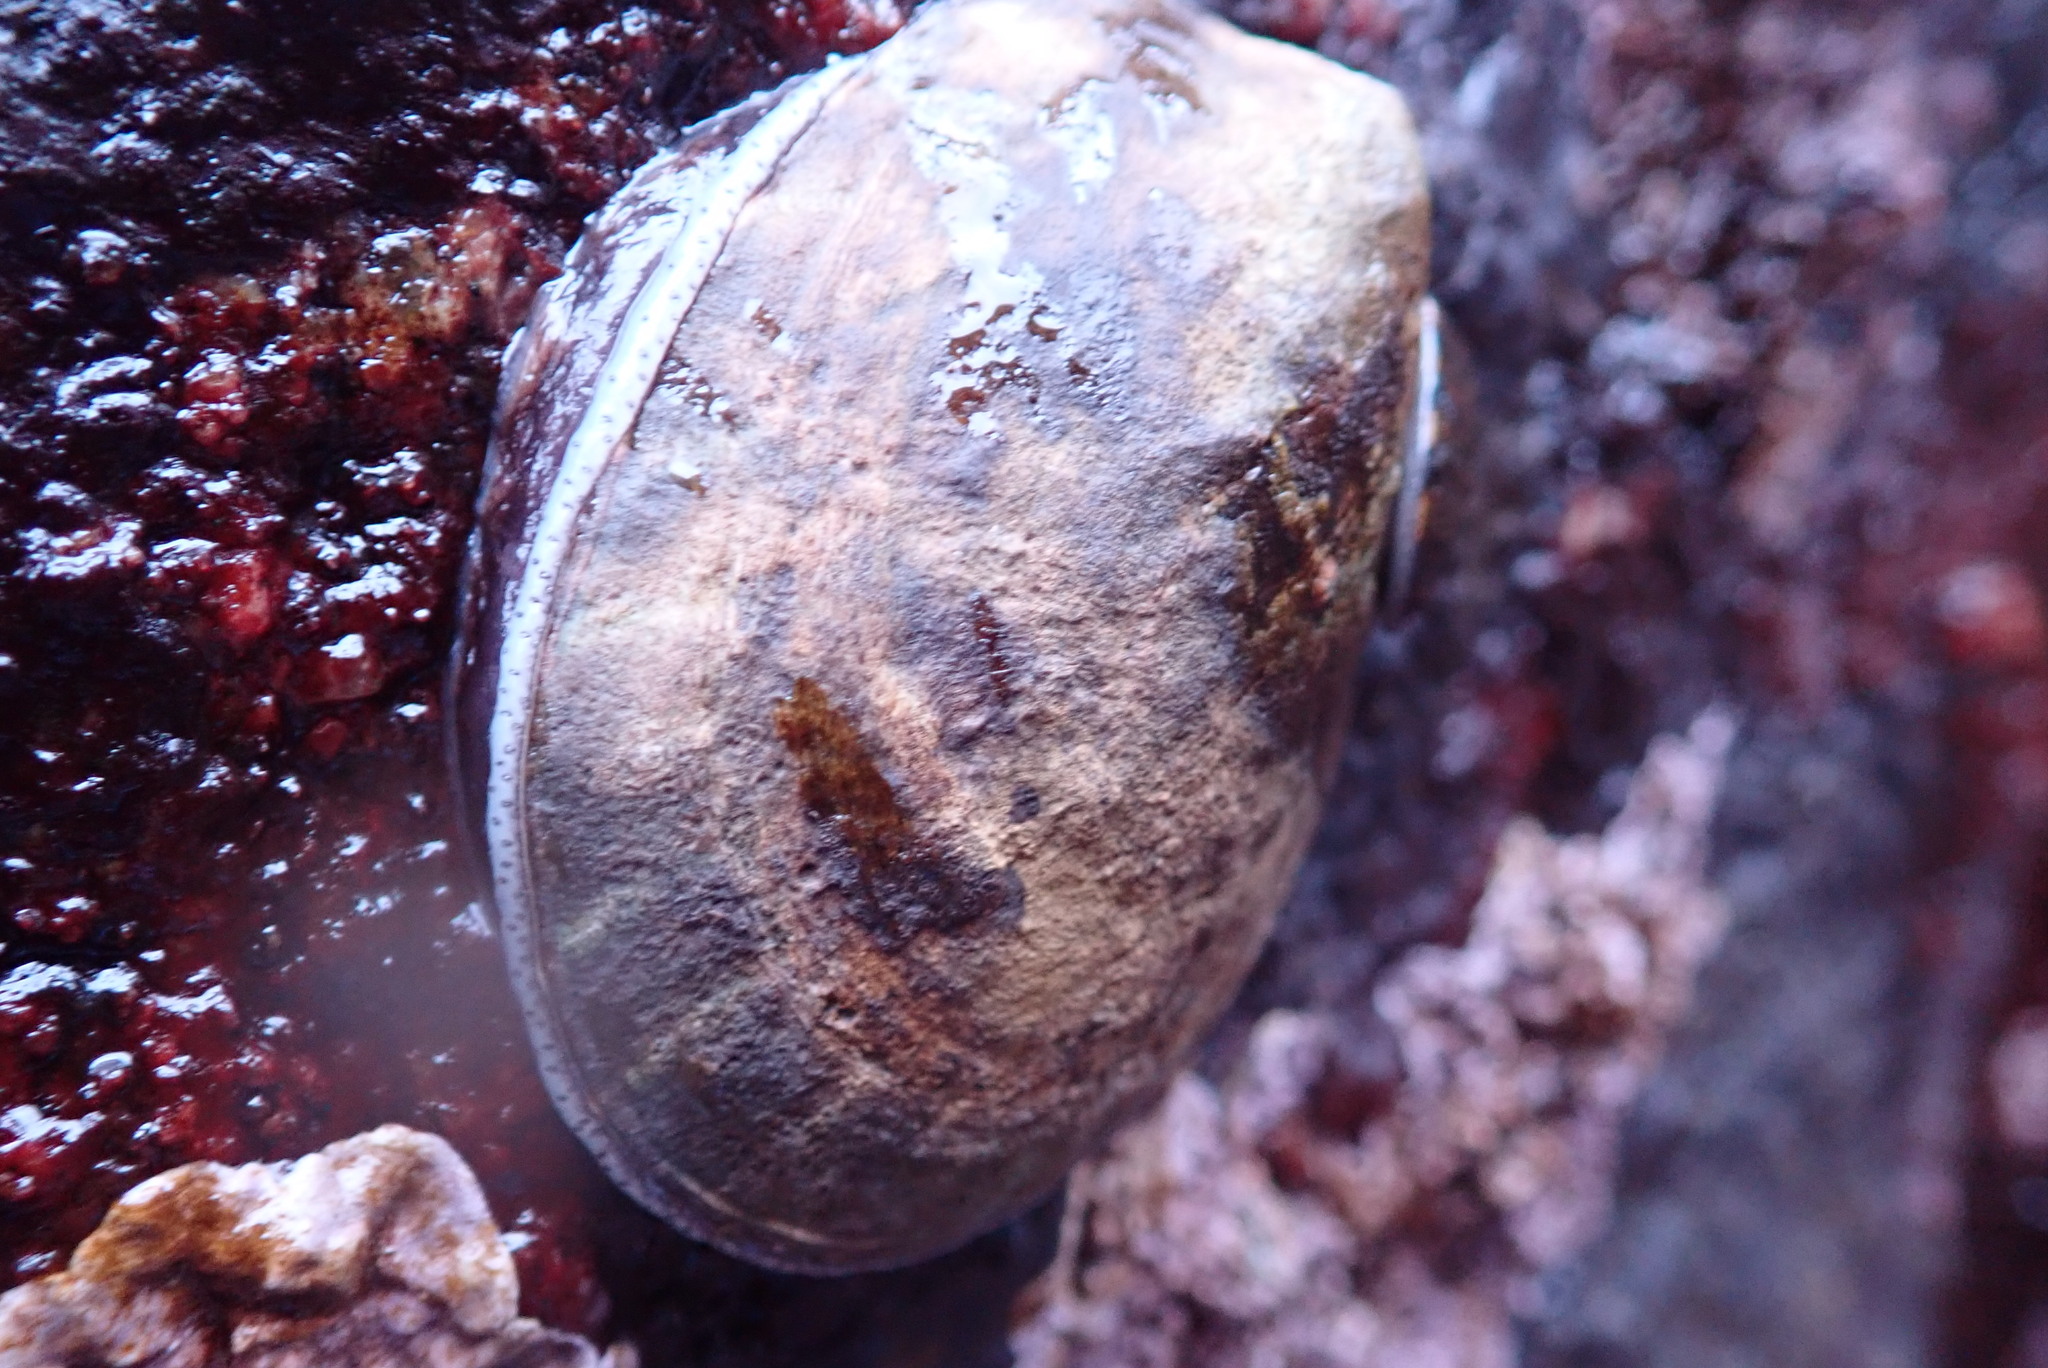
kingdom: Animalia
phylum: Mollusca
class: Gastropoda
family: Lottiidae
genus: Lottia
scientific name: Lottia gigantea
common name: Owl limpet
